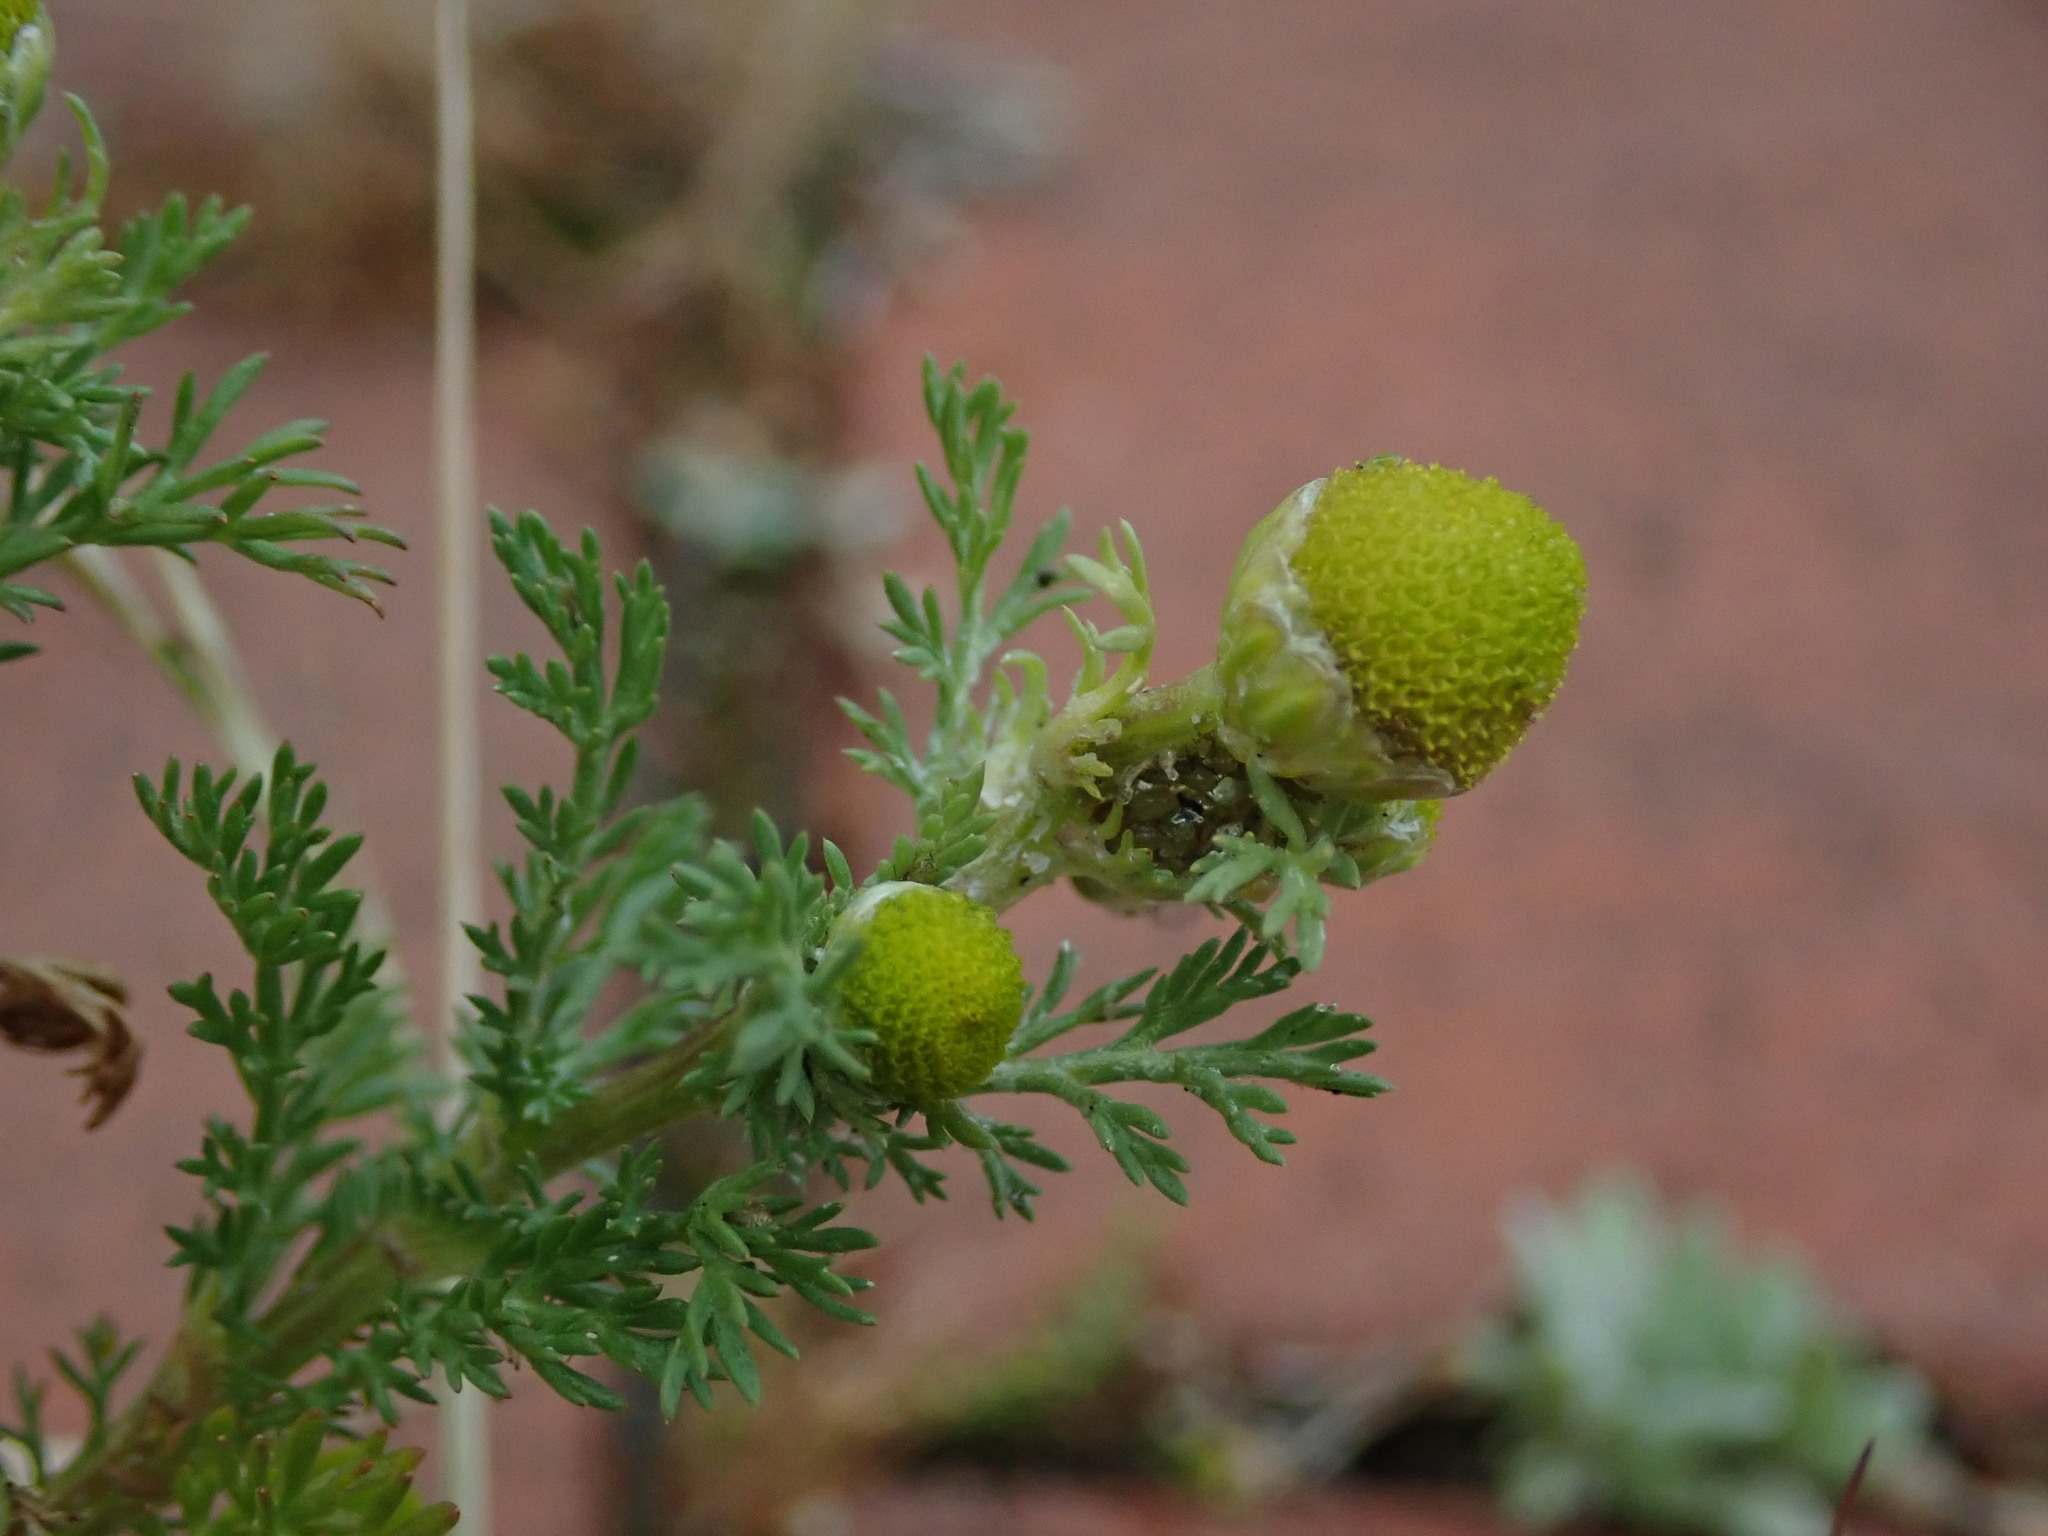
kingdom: Plantae
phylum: Tracheophyta
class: Magnoliopsida
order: Asterales
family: Asteraceae
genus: Matricaria
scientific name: Matricaria discoidea
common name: Disc mayweed
